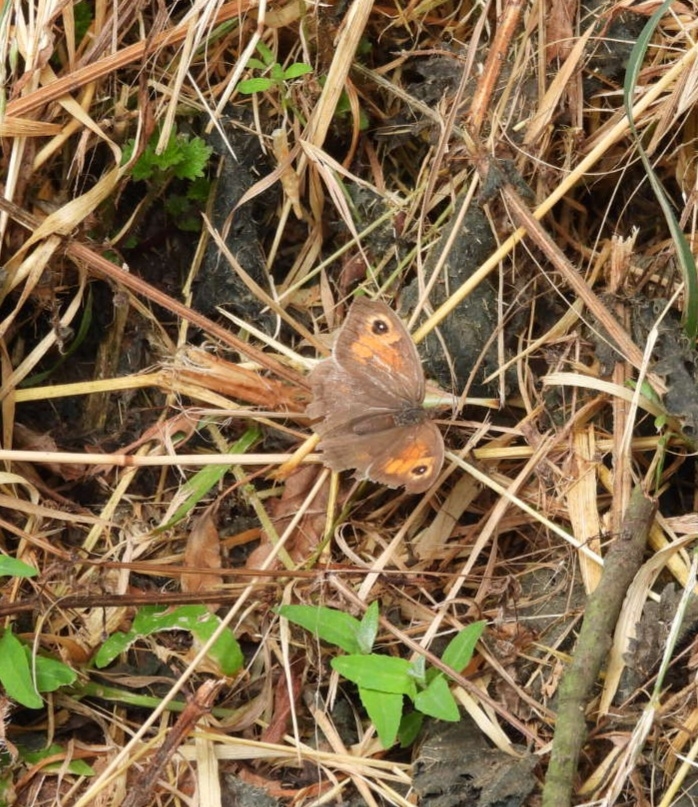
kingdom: Animalia
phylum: Arthropoda
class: Insecta
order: Lepidoptera
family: Nymphalidae
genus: Maniola
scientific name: Maniola jurtina
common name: Meadow brown
